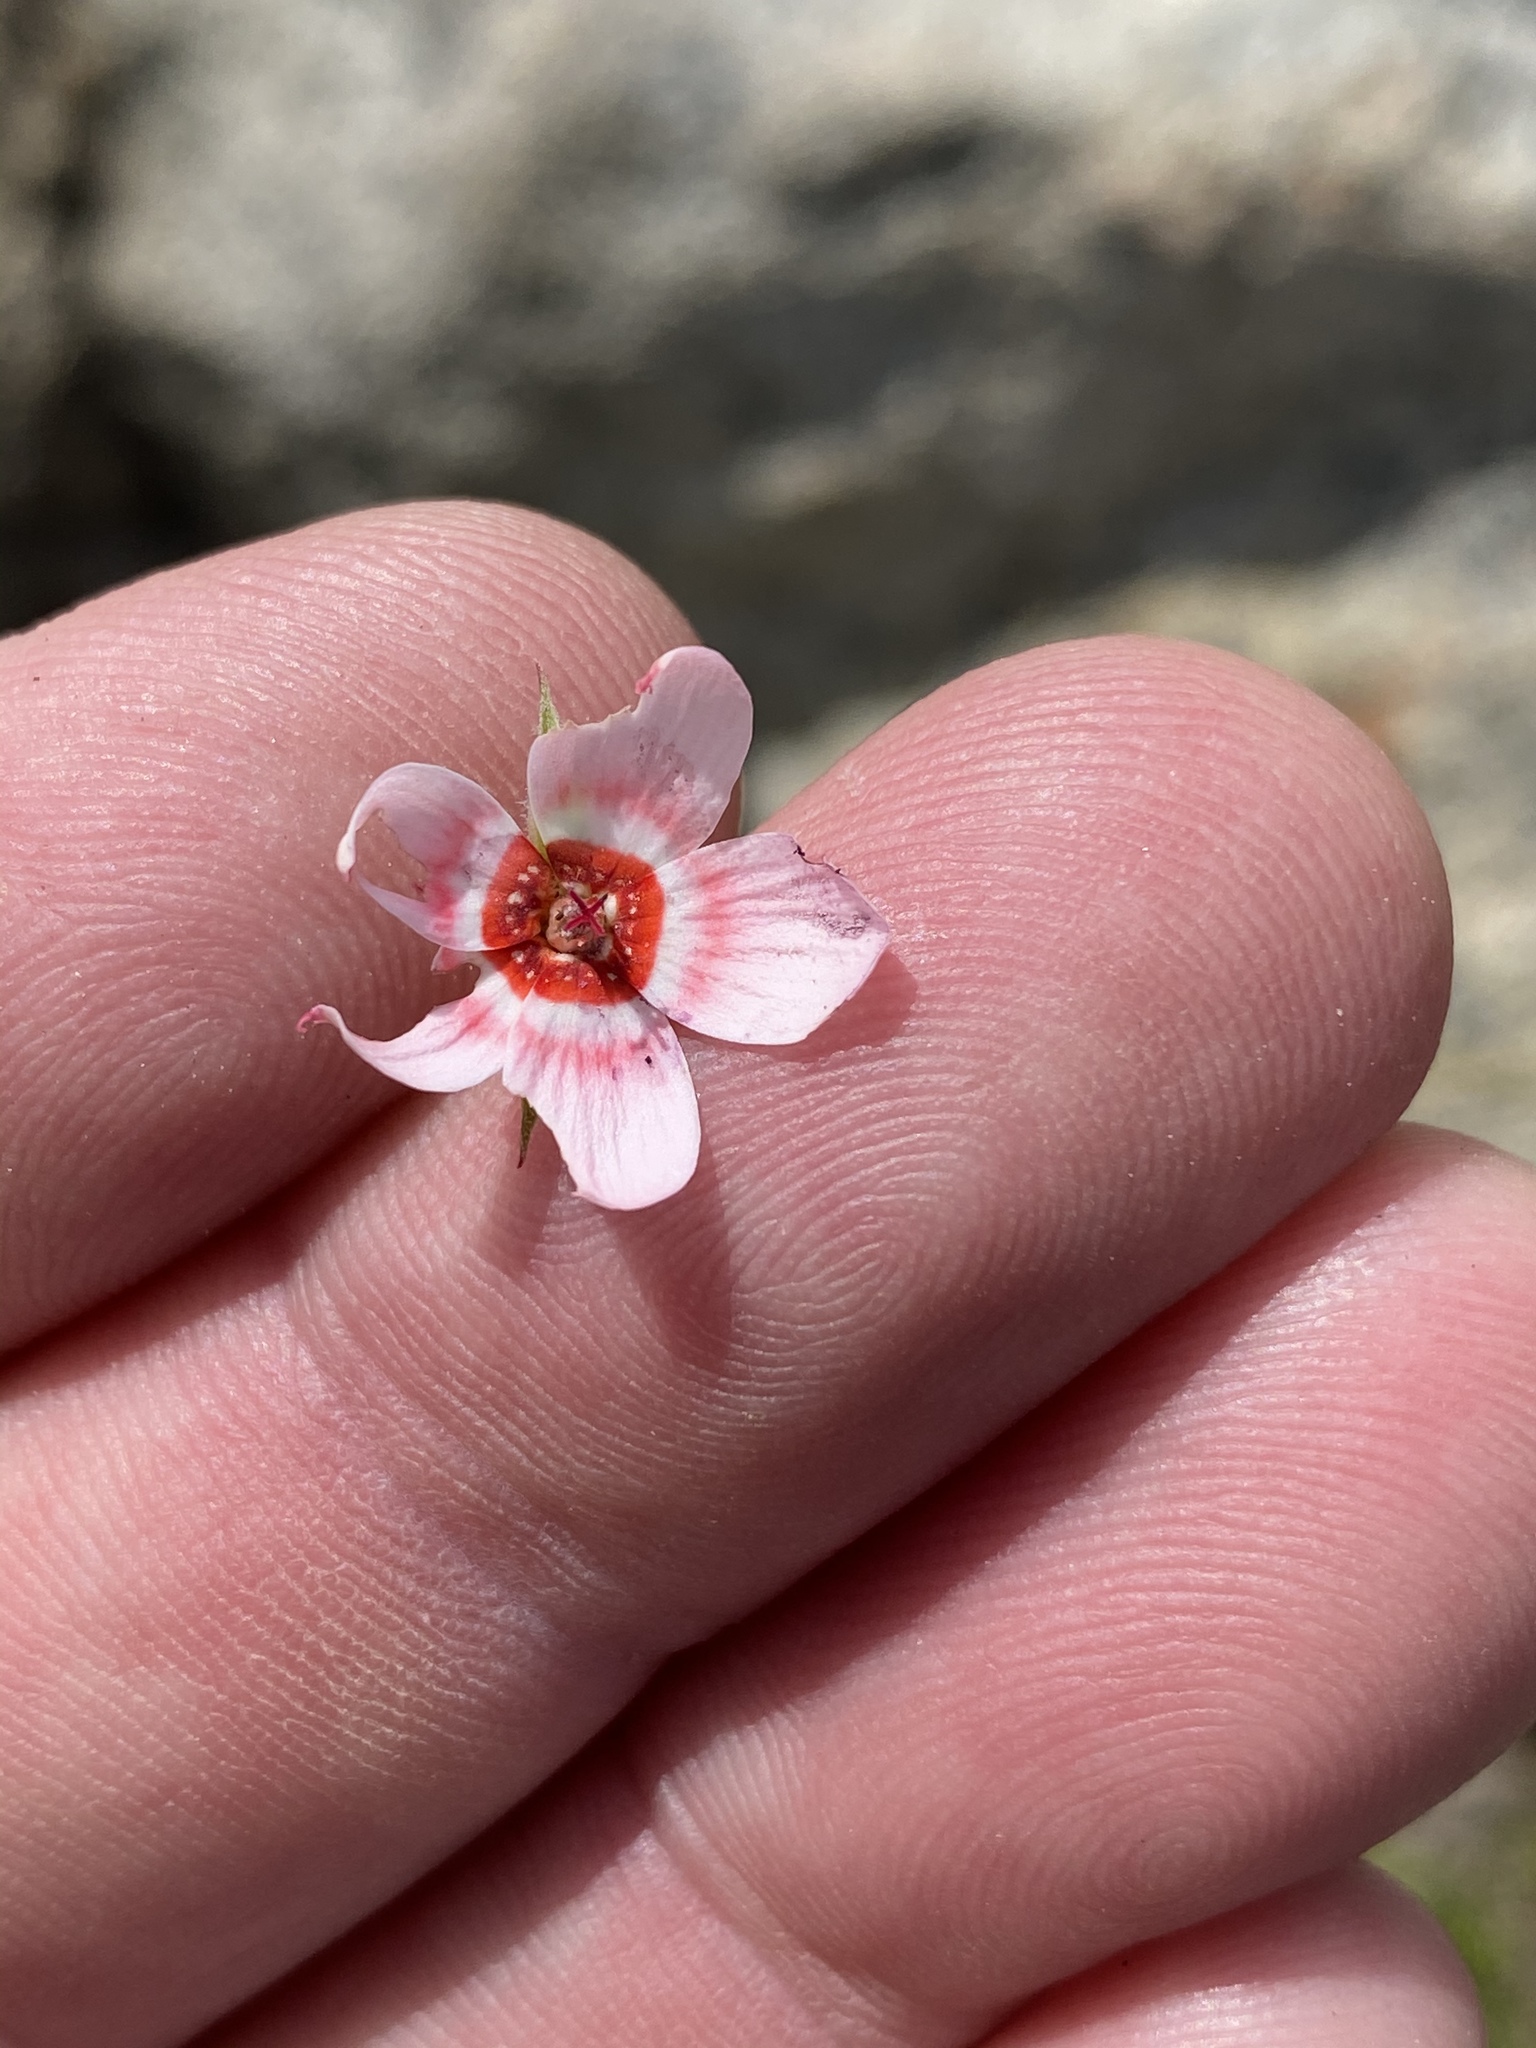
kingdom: Plantae
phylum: Tracheophyta
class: Magnoliopsida
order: Geraniales
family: Geraniaceae
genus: Pelargonium
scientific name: Pelargonium incarnatum
